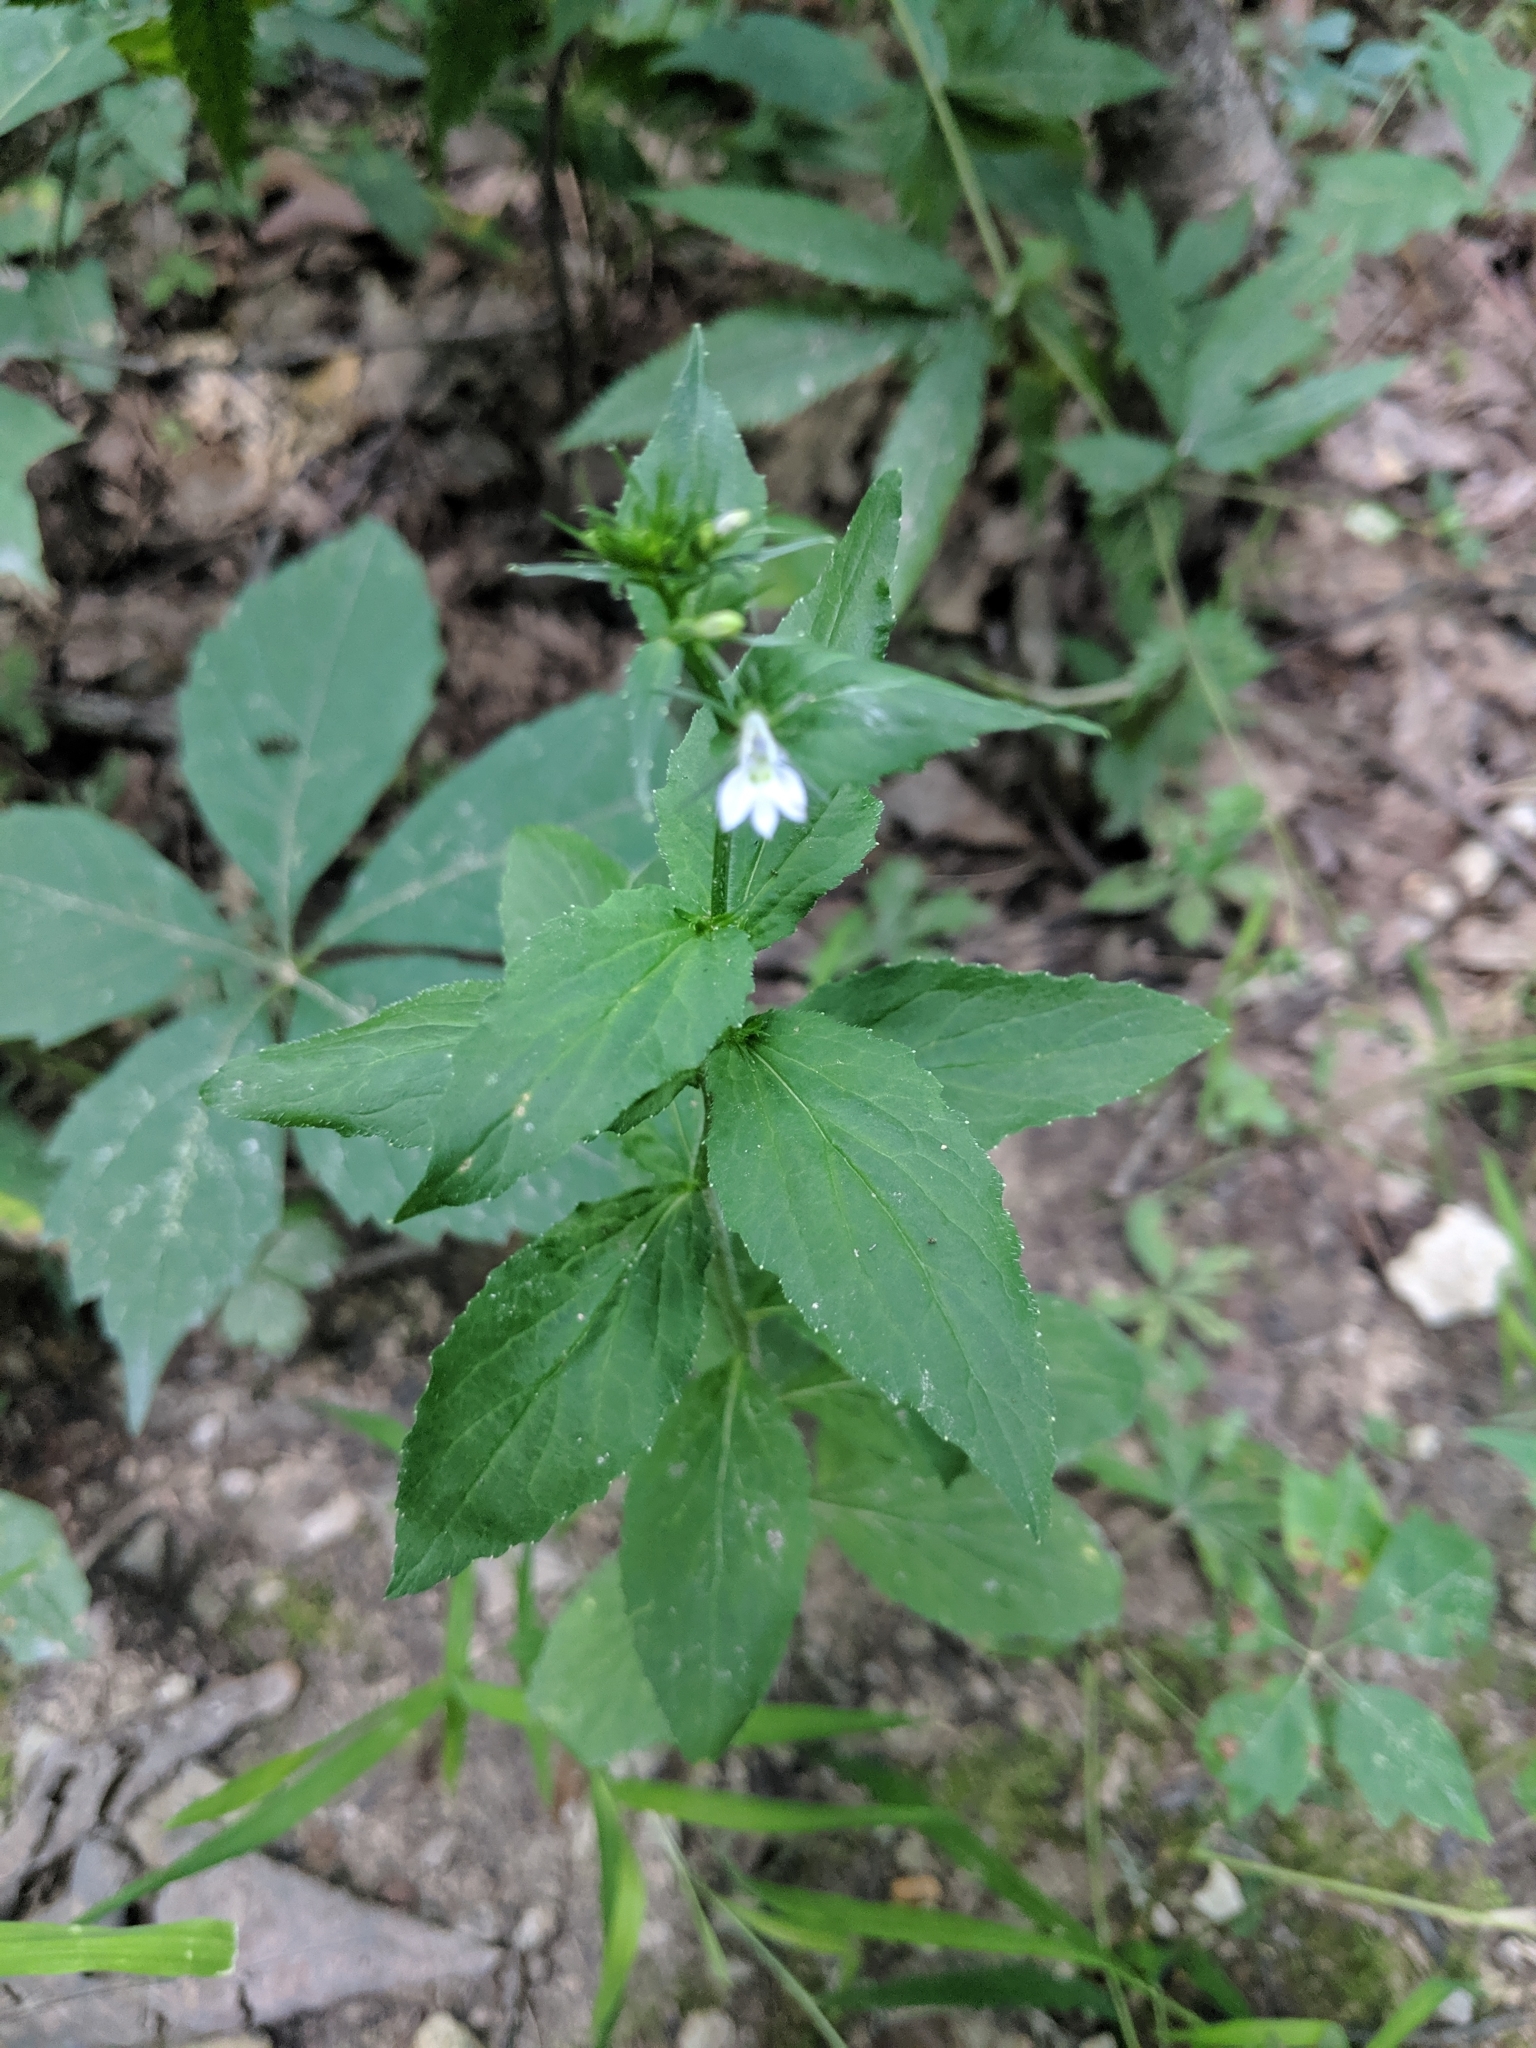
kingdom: Plantae
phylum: Tracheophyta
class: Magnoliopsida
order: Asterales
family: Campanulaceae
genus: Lobelia
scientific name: Lobelia inflata
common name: Indian tobacco
